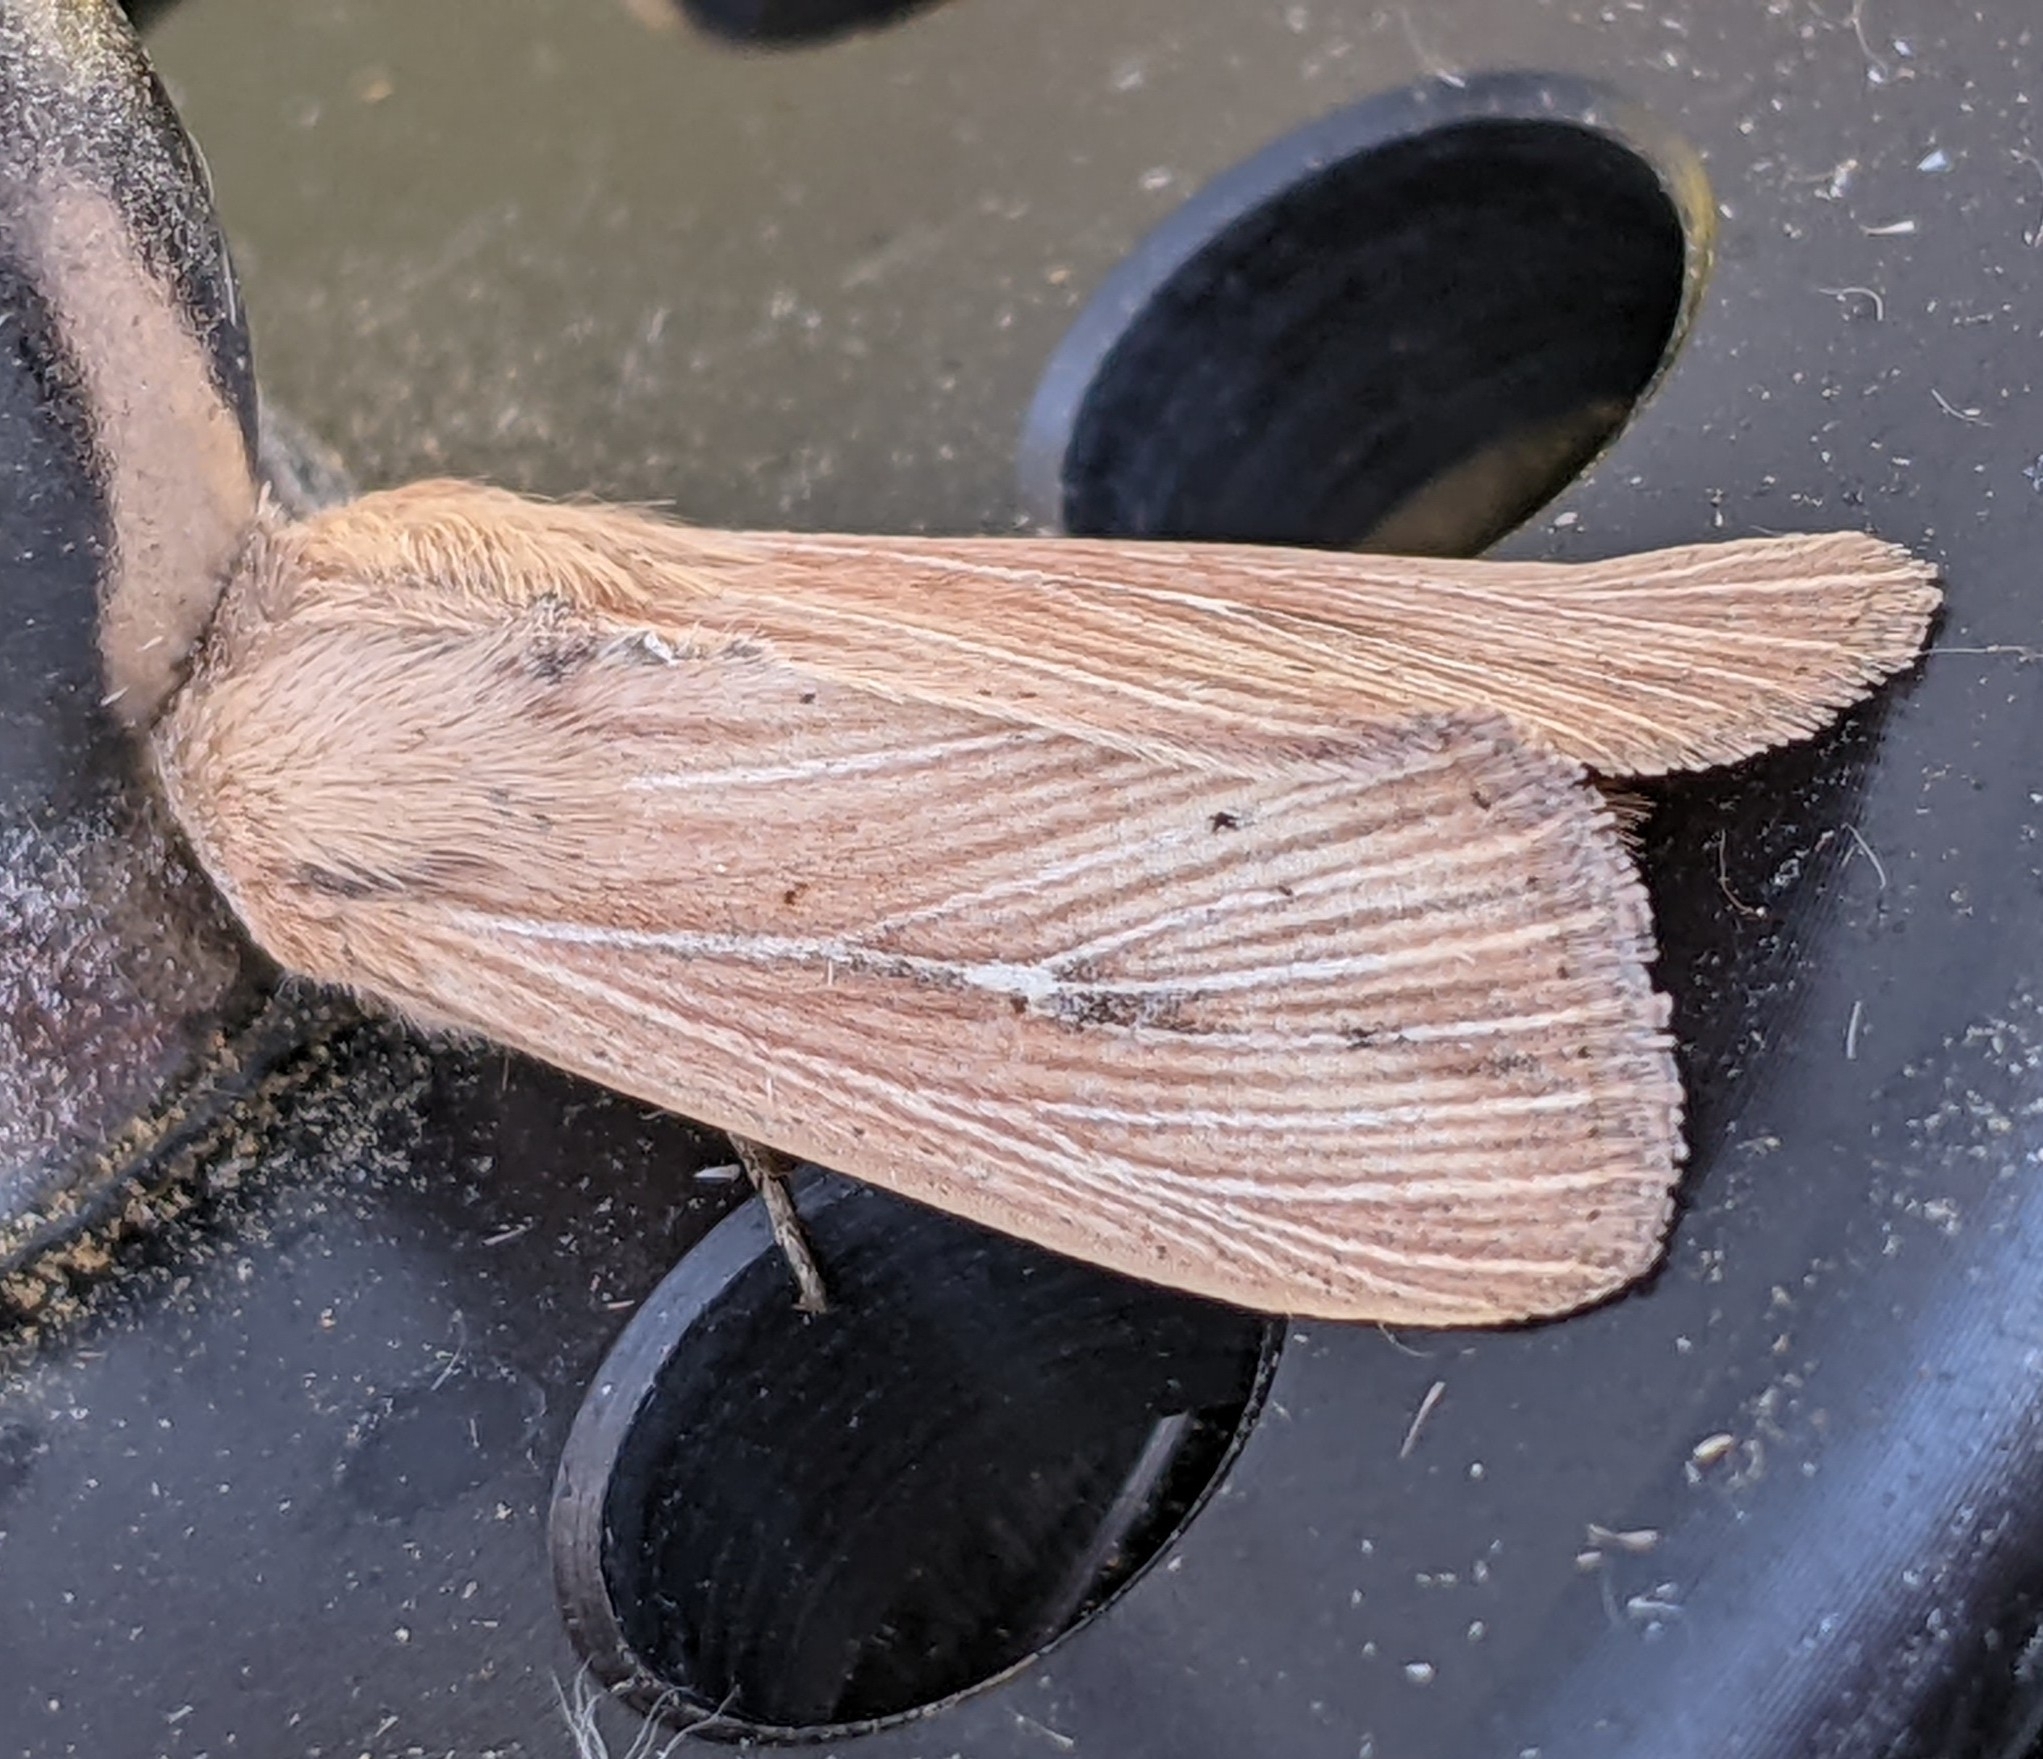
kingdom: Animalia
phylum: Arthropoda
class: Insecta
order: Lepidoptera
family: Noctuidae
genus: Mythimna
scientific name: Mythimna oxygala
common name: Lesser wainscot
